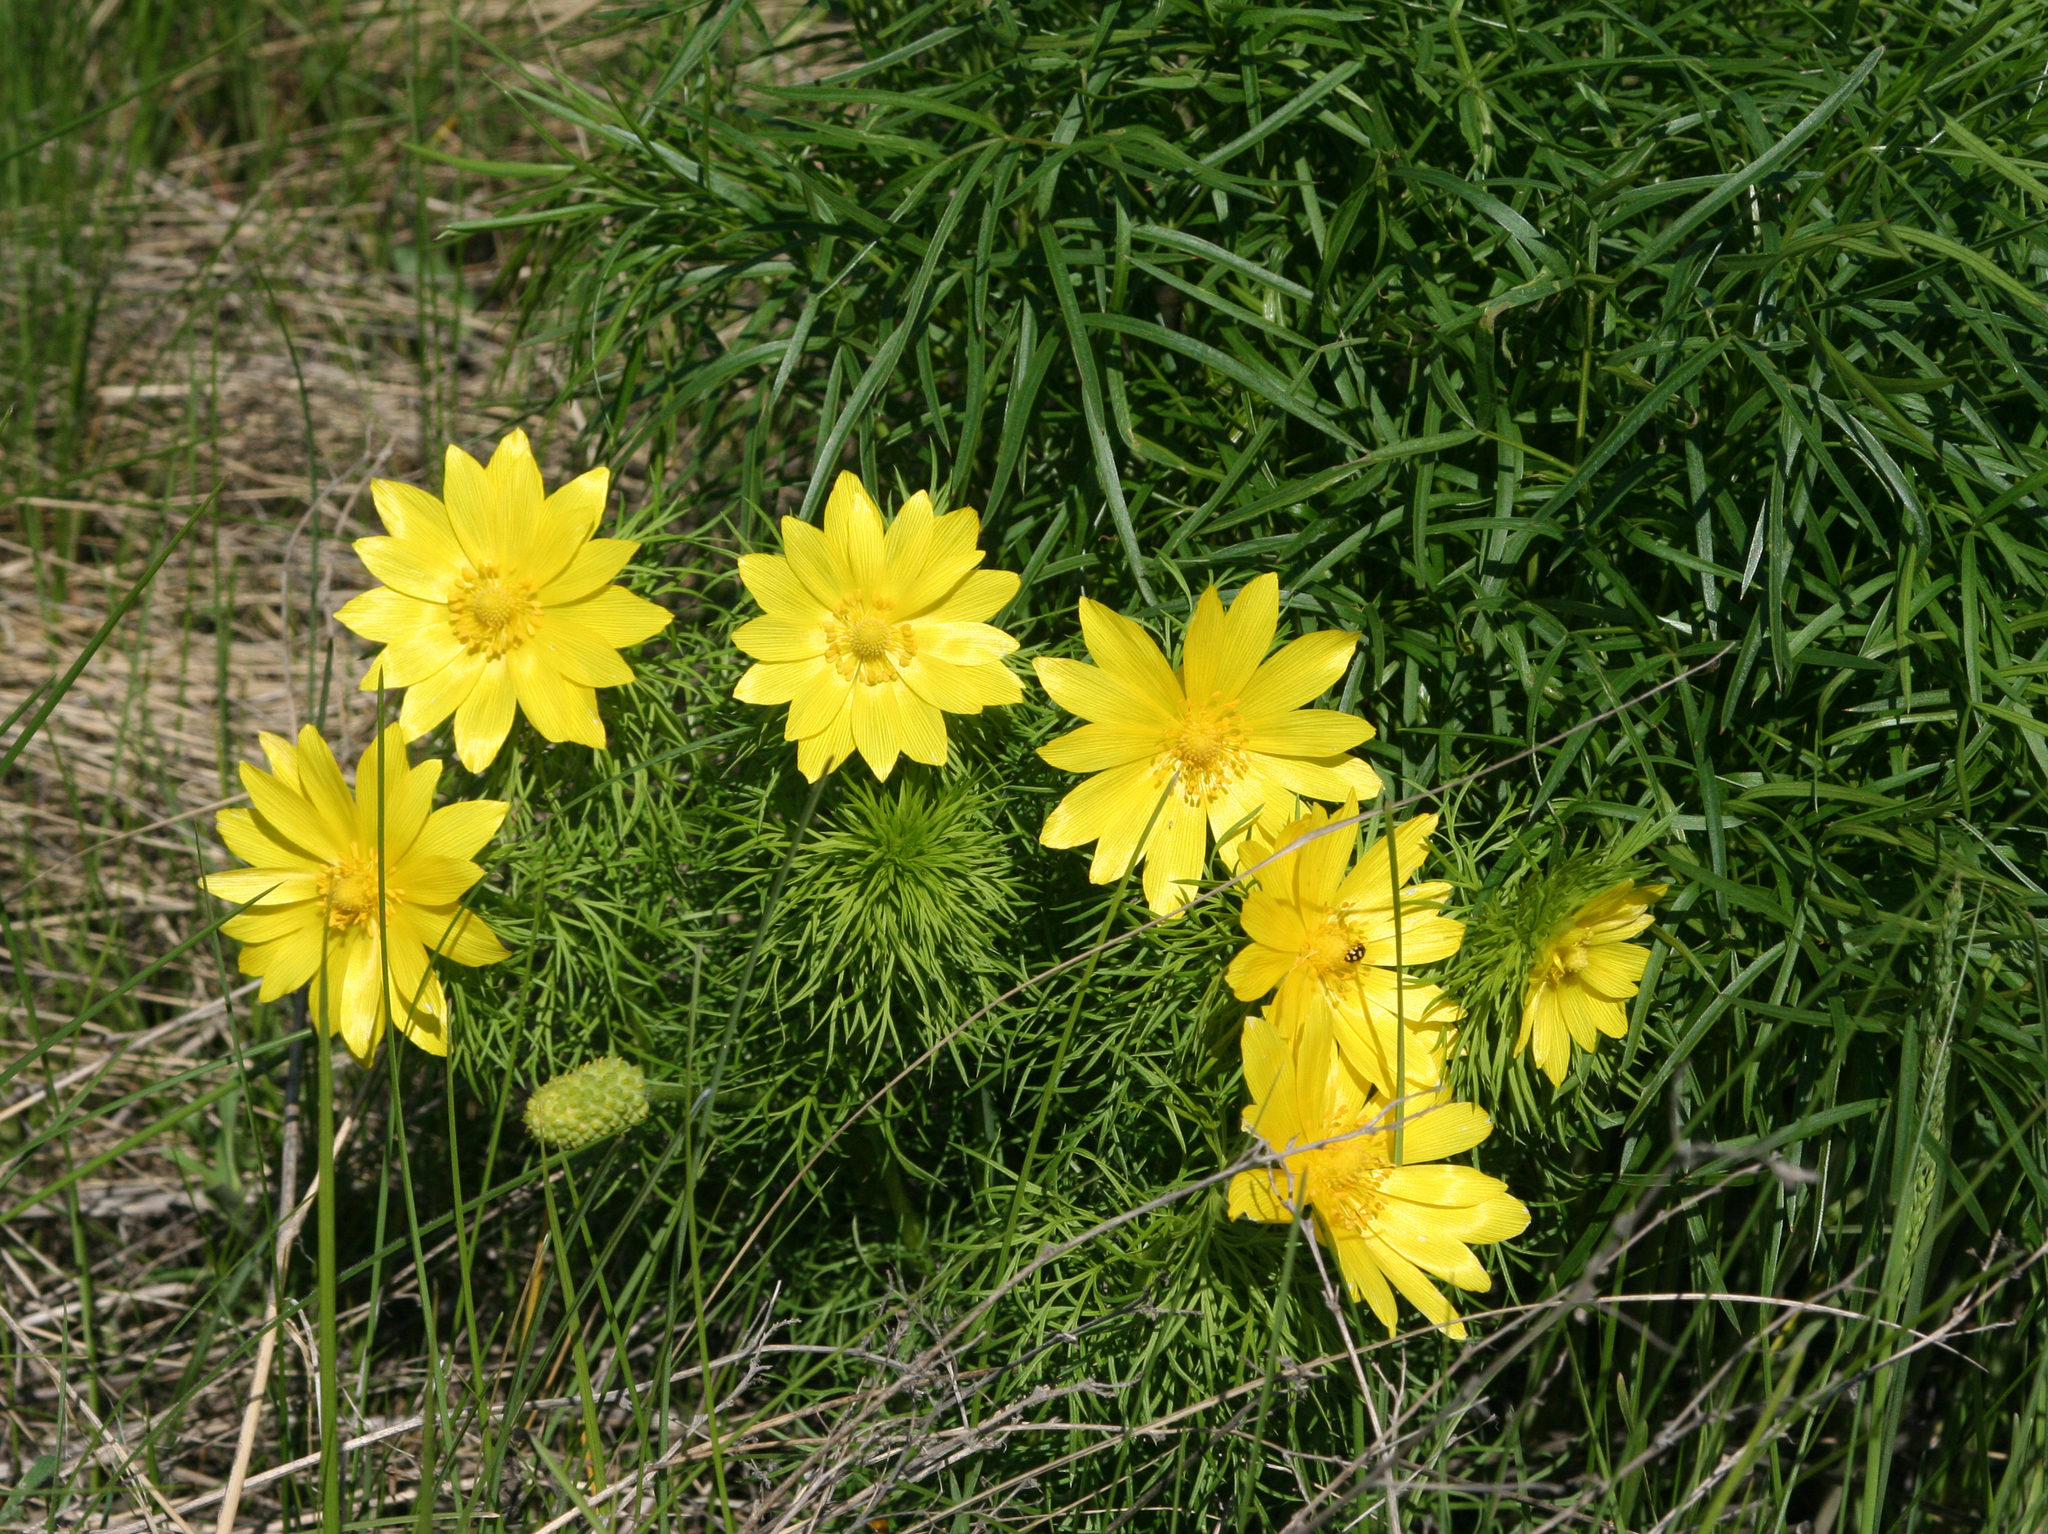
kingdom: Plantae
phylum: Tracheophyta
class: Magnoliopsida
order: Ranunculales
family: Ranunculaceae
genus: Adonis
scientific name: Adonis vernalis
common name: Yellow pheasants-eye
